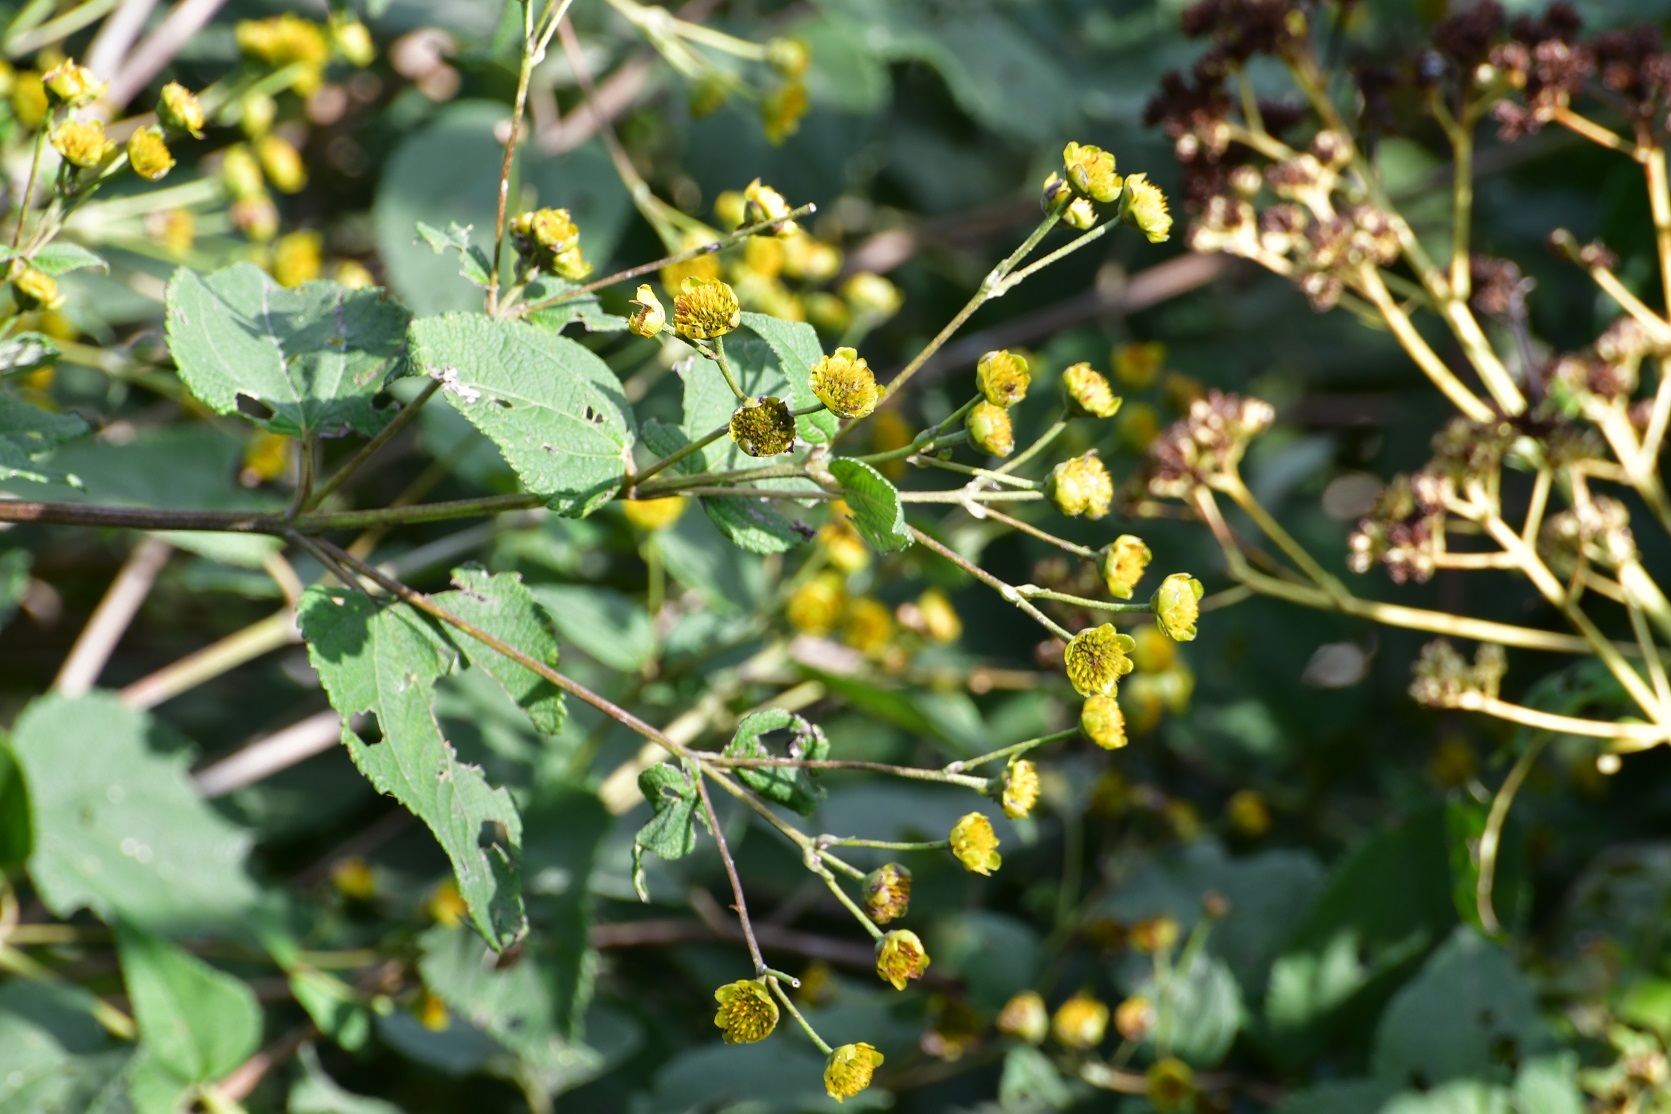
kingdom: Plantae
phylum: Tracheophyta
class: Magnoliopsida
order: Asterales
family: Asteraceae
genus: Lasianthaea
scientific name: Lasianthaea fruticosa
